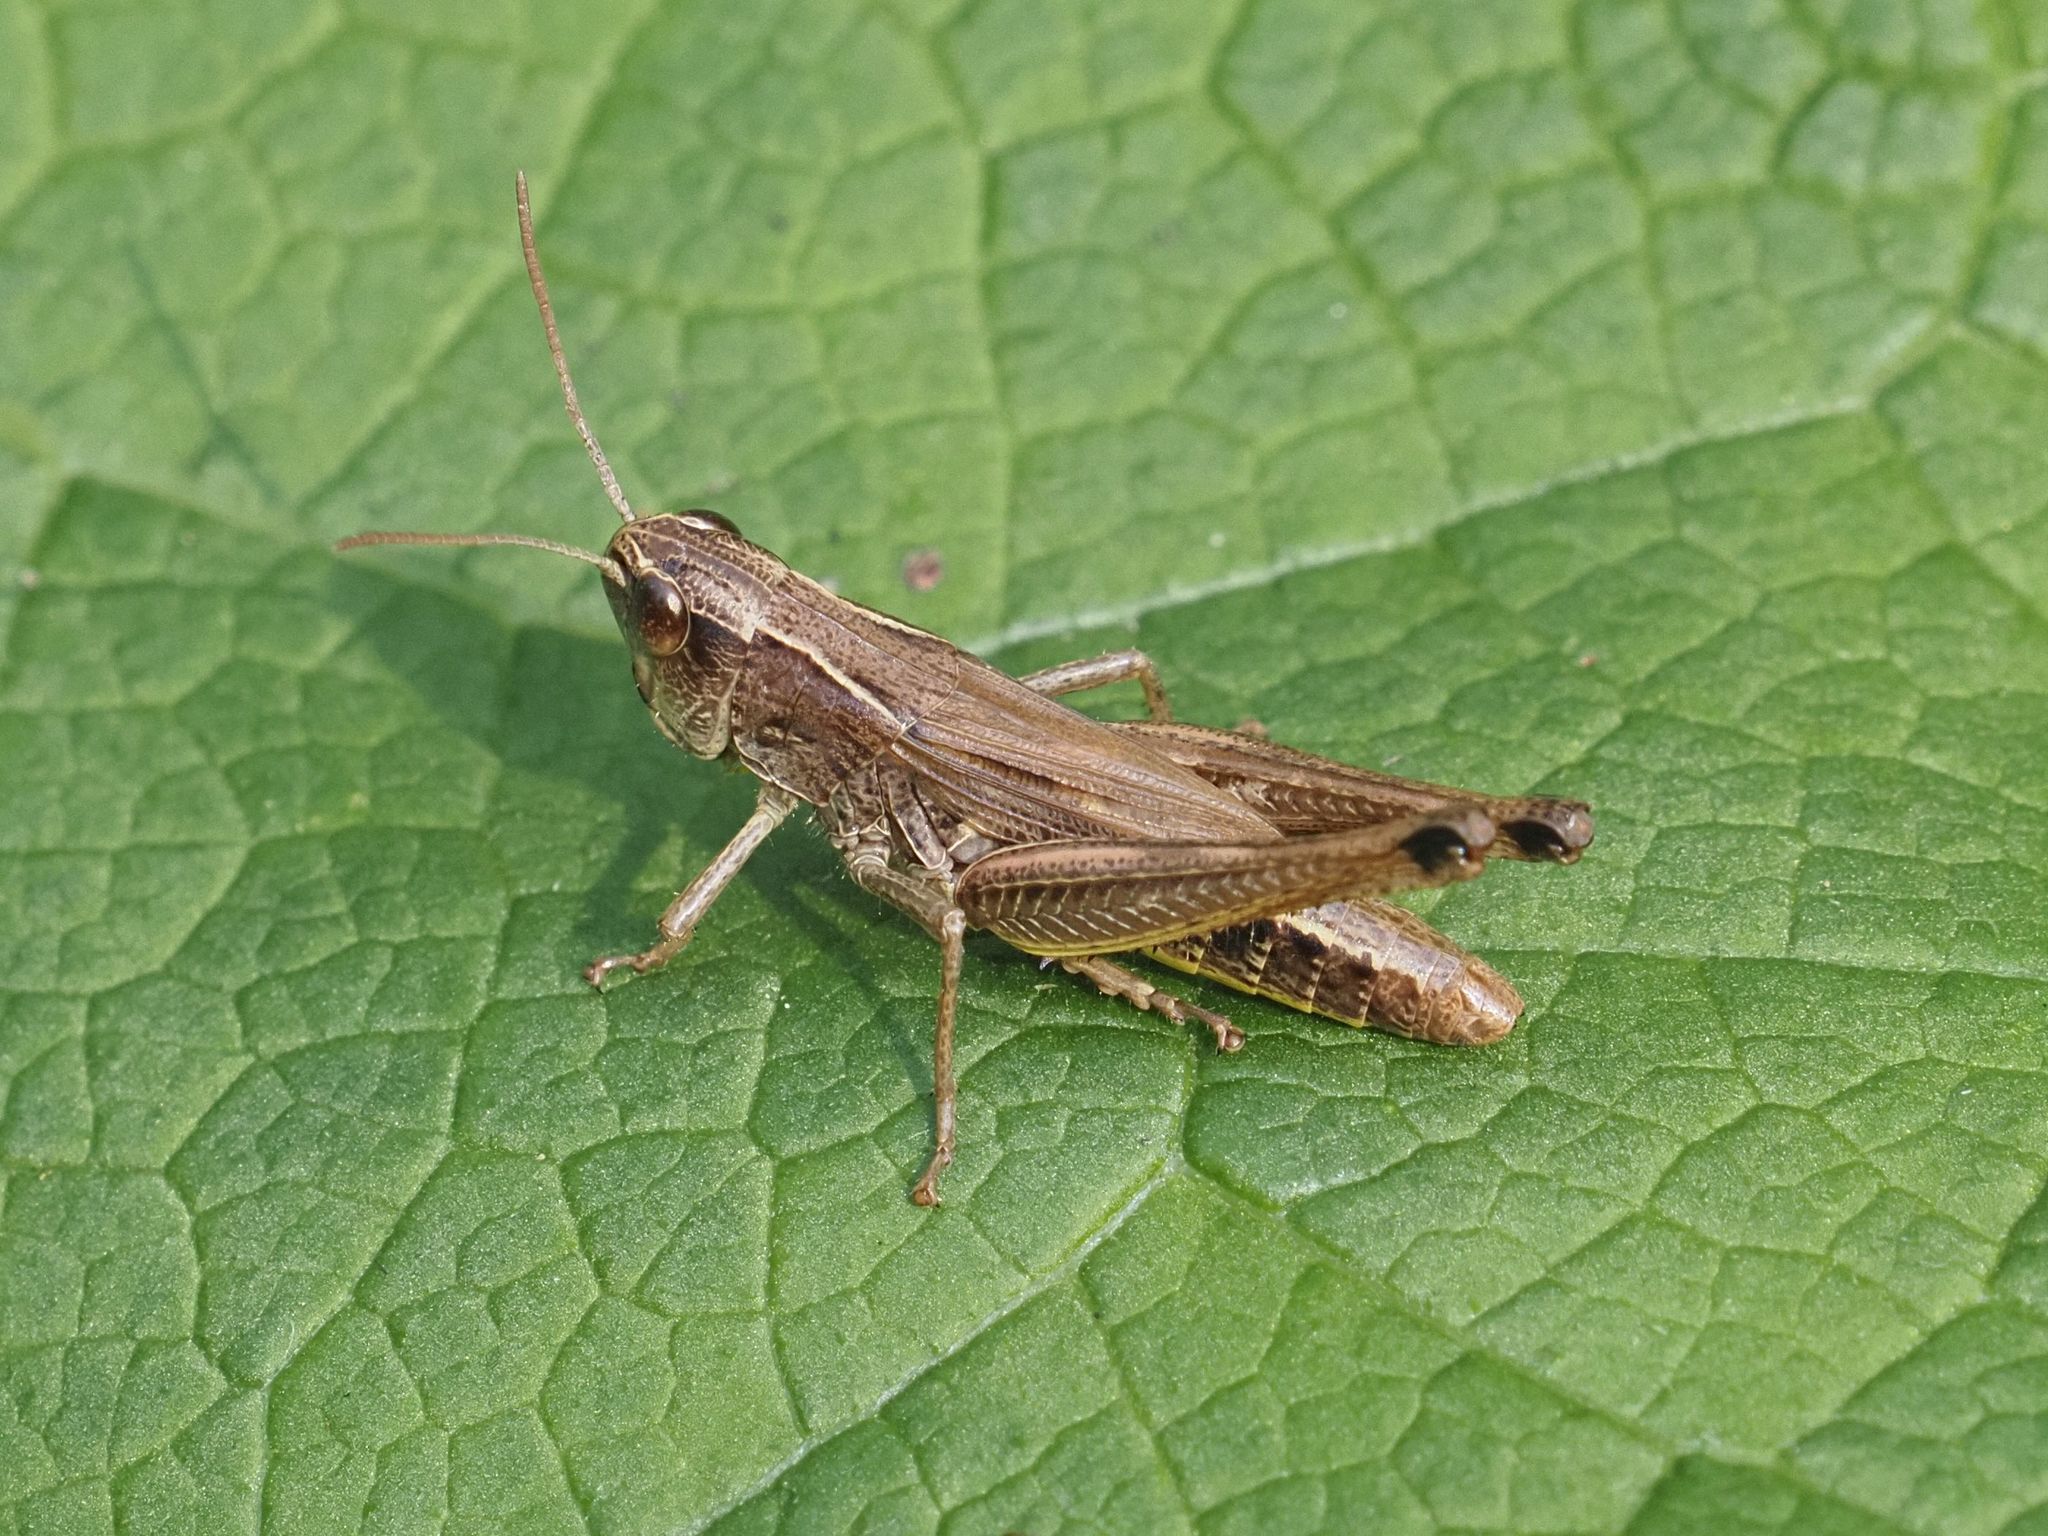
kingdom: Animalia
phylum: Arthropoda
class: Insecta
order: Orthoptera
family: Acrididae
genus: Pseudochorthippus
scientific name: Pseudochorthippus parallelus
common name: Meadow grasshopper
